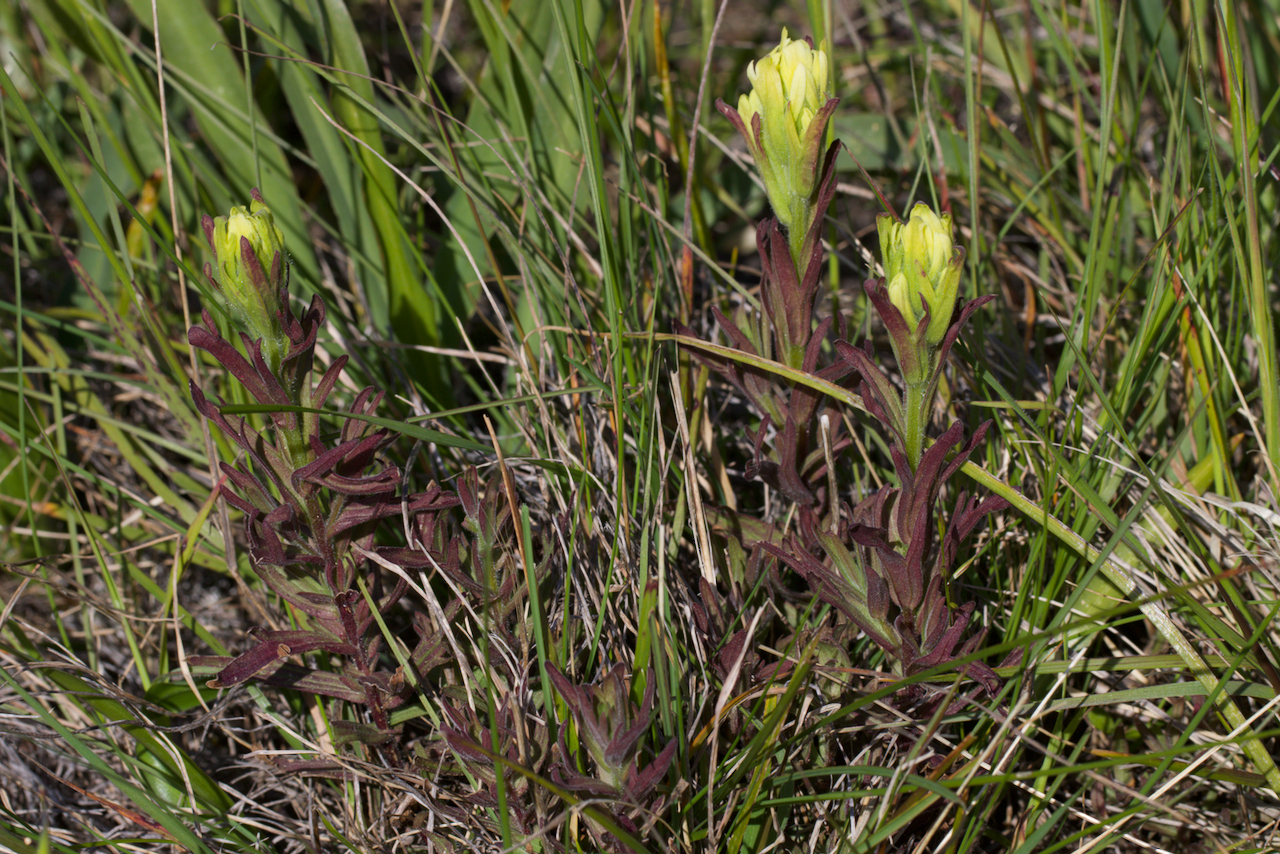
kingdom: Plantae
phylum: Tracheophyta
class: Magnoliopsida
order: Lamiales
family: Orobanchaceae
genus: Castilleja
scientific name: Castilleja affinis
